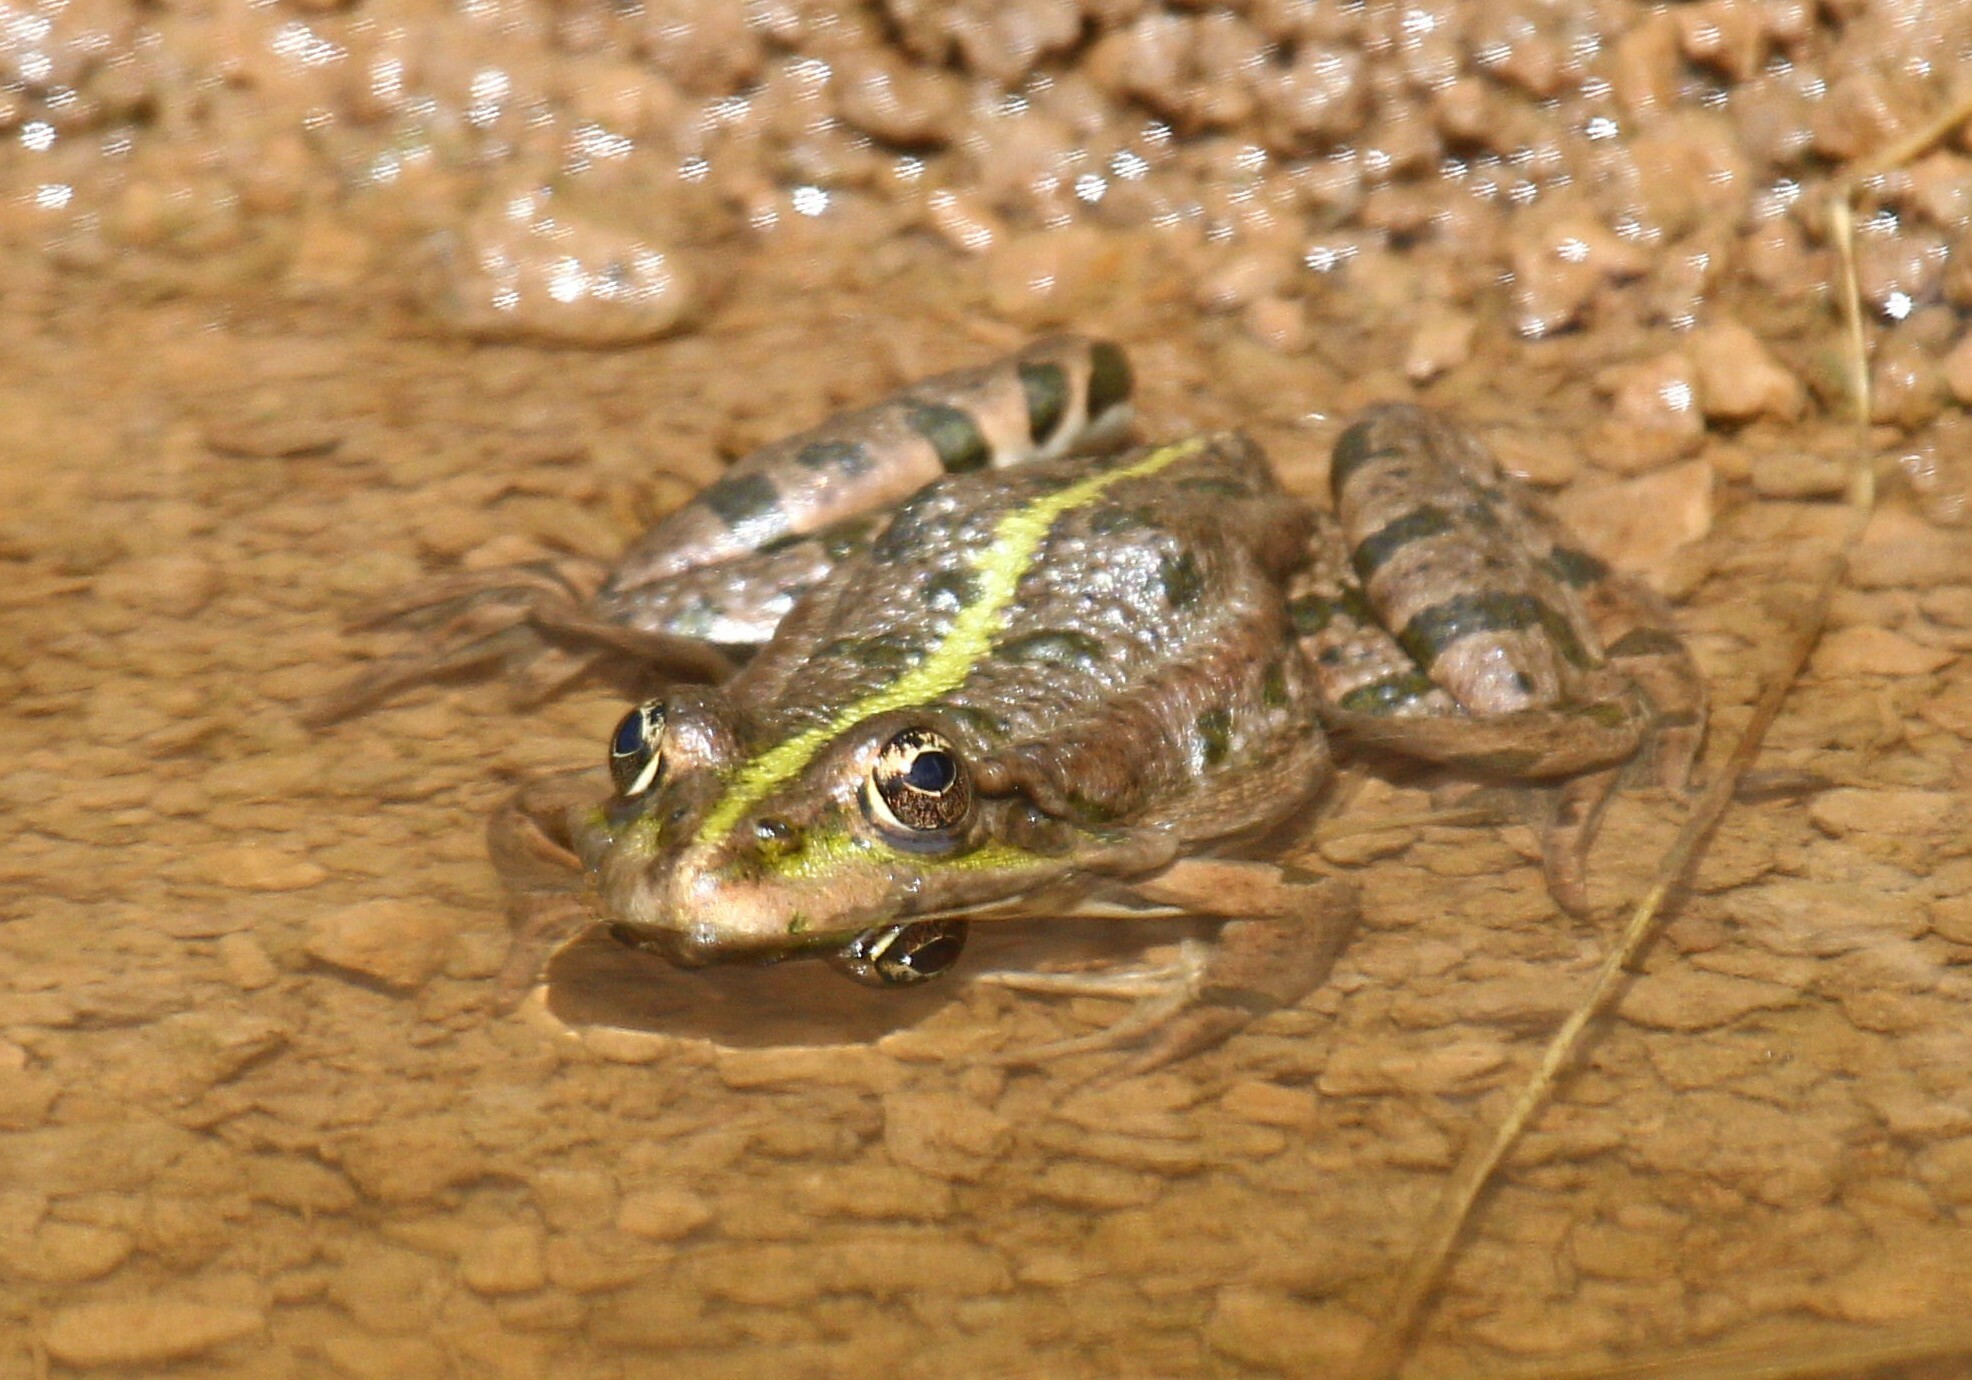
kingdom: Animalia
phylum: Chordata
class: Amphibia
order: Anura
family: Ranidae
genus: Pelophylax
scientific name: Pelophylax ridibundus
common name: Marsh frog
